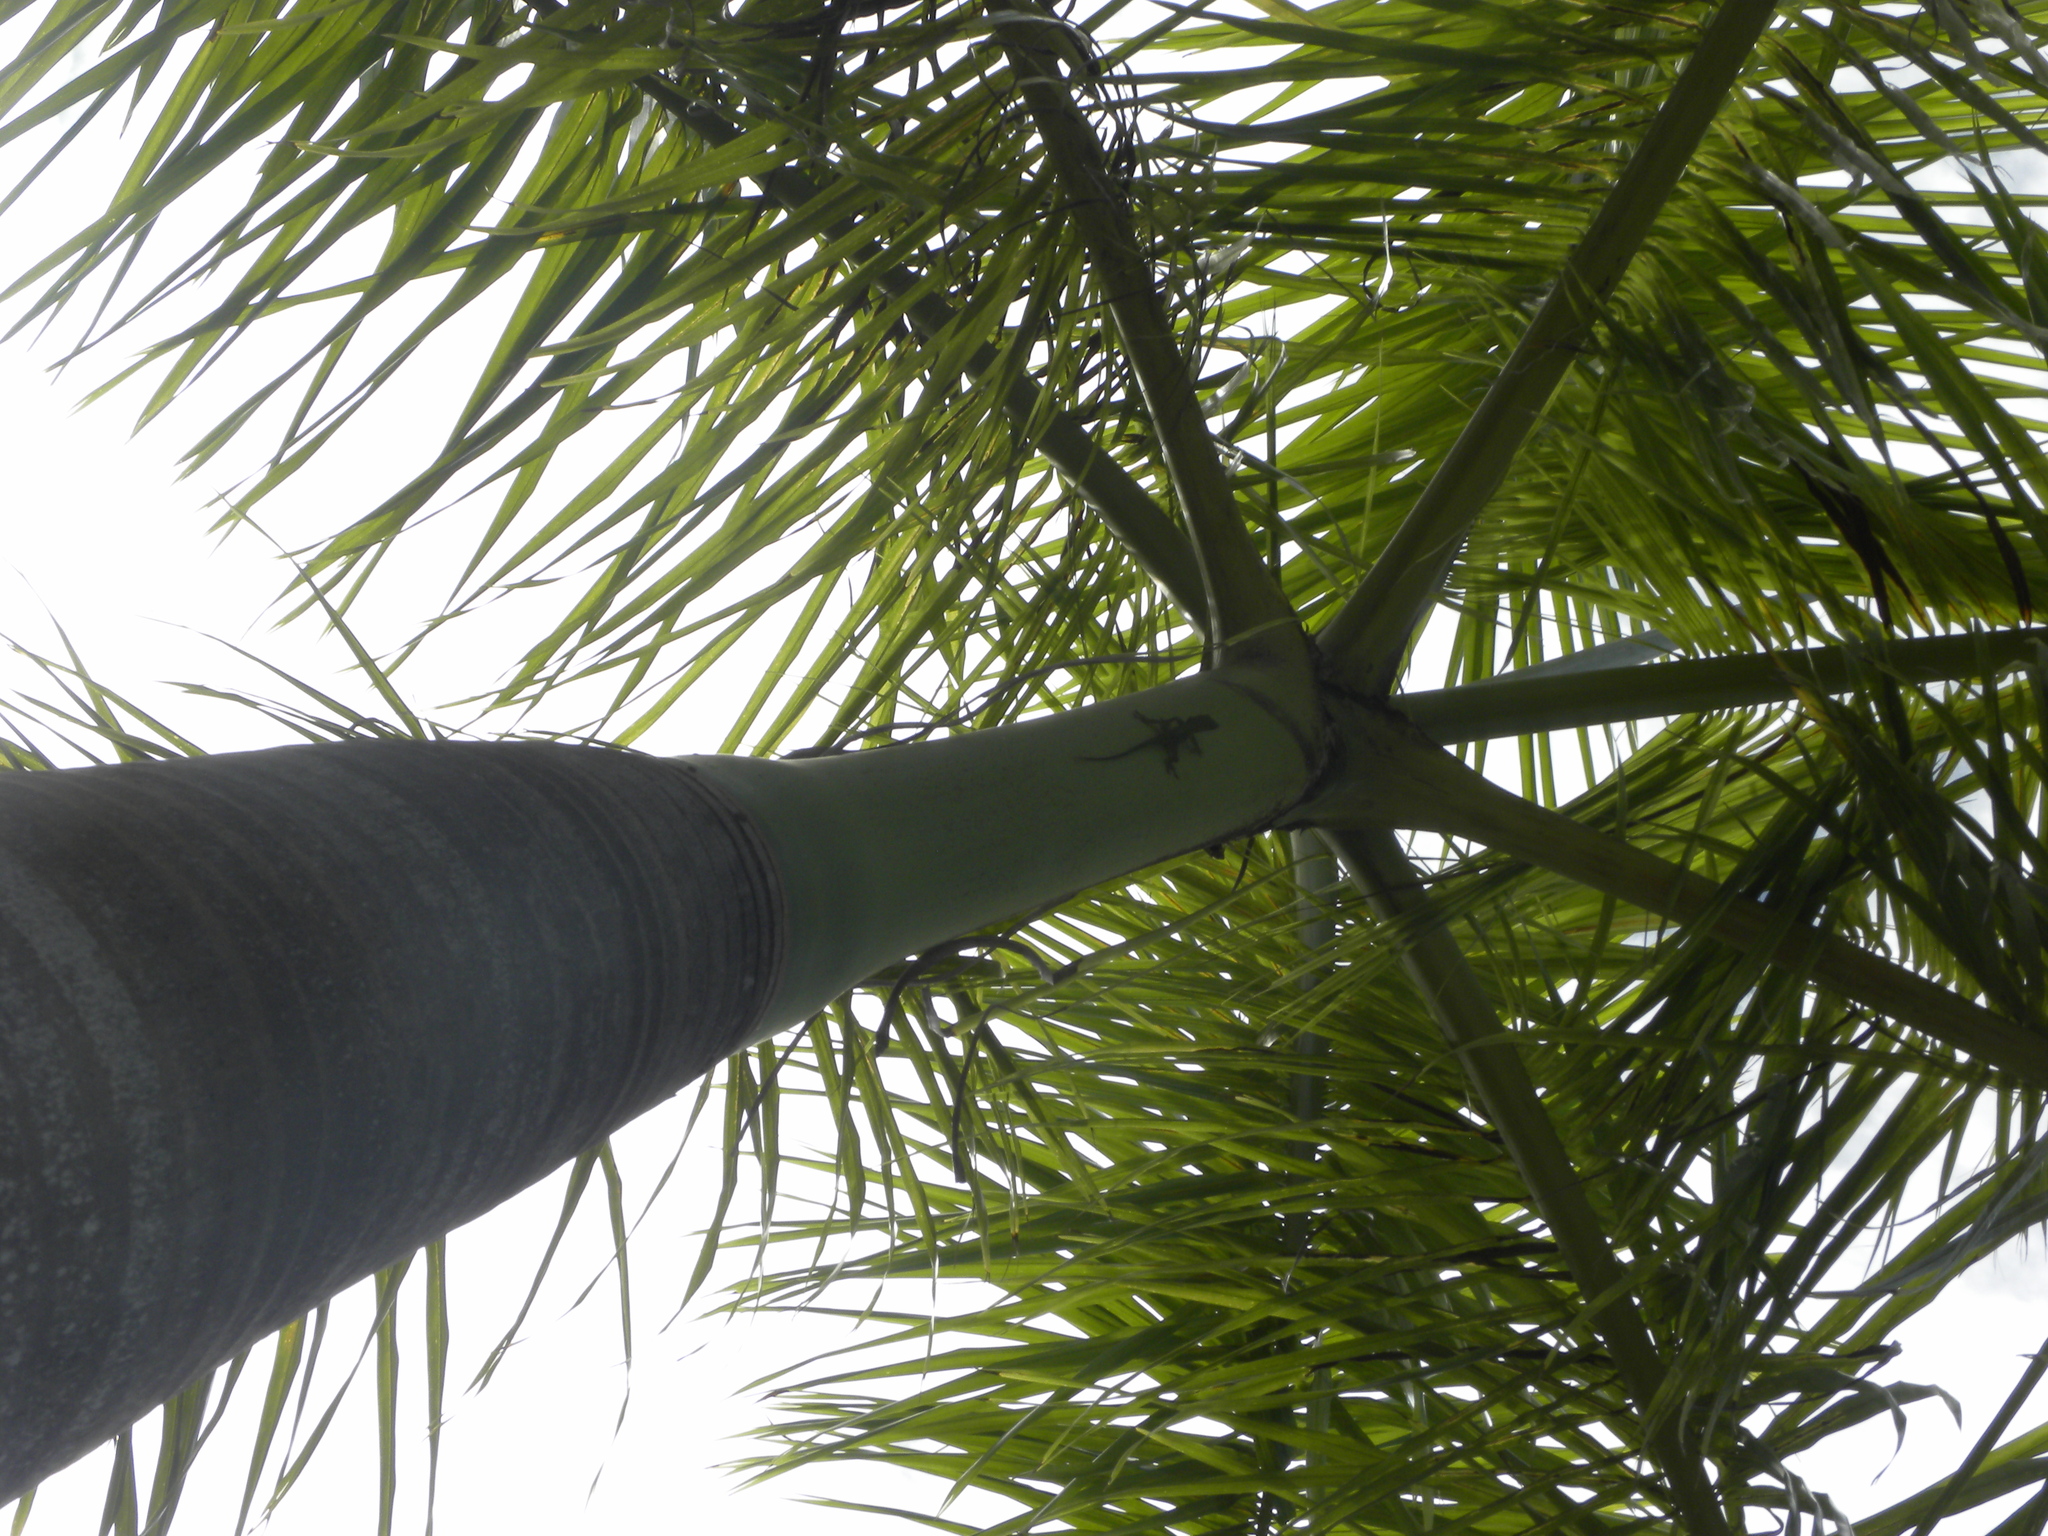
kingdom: Animalia
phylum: Chordata
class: Squamata
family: Dactyloidae
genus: Anolis
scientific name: Anolis allisoni
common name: Allison's anole
